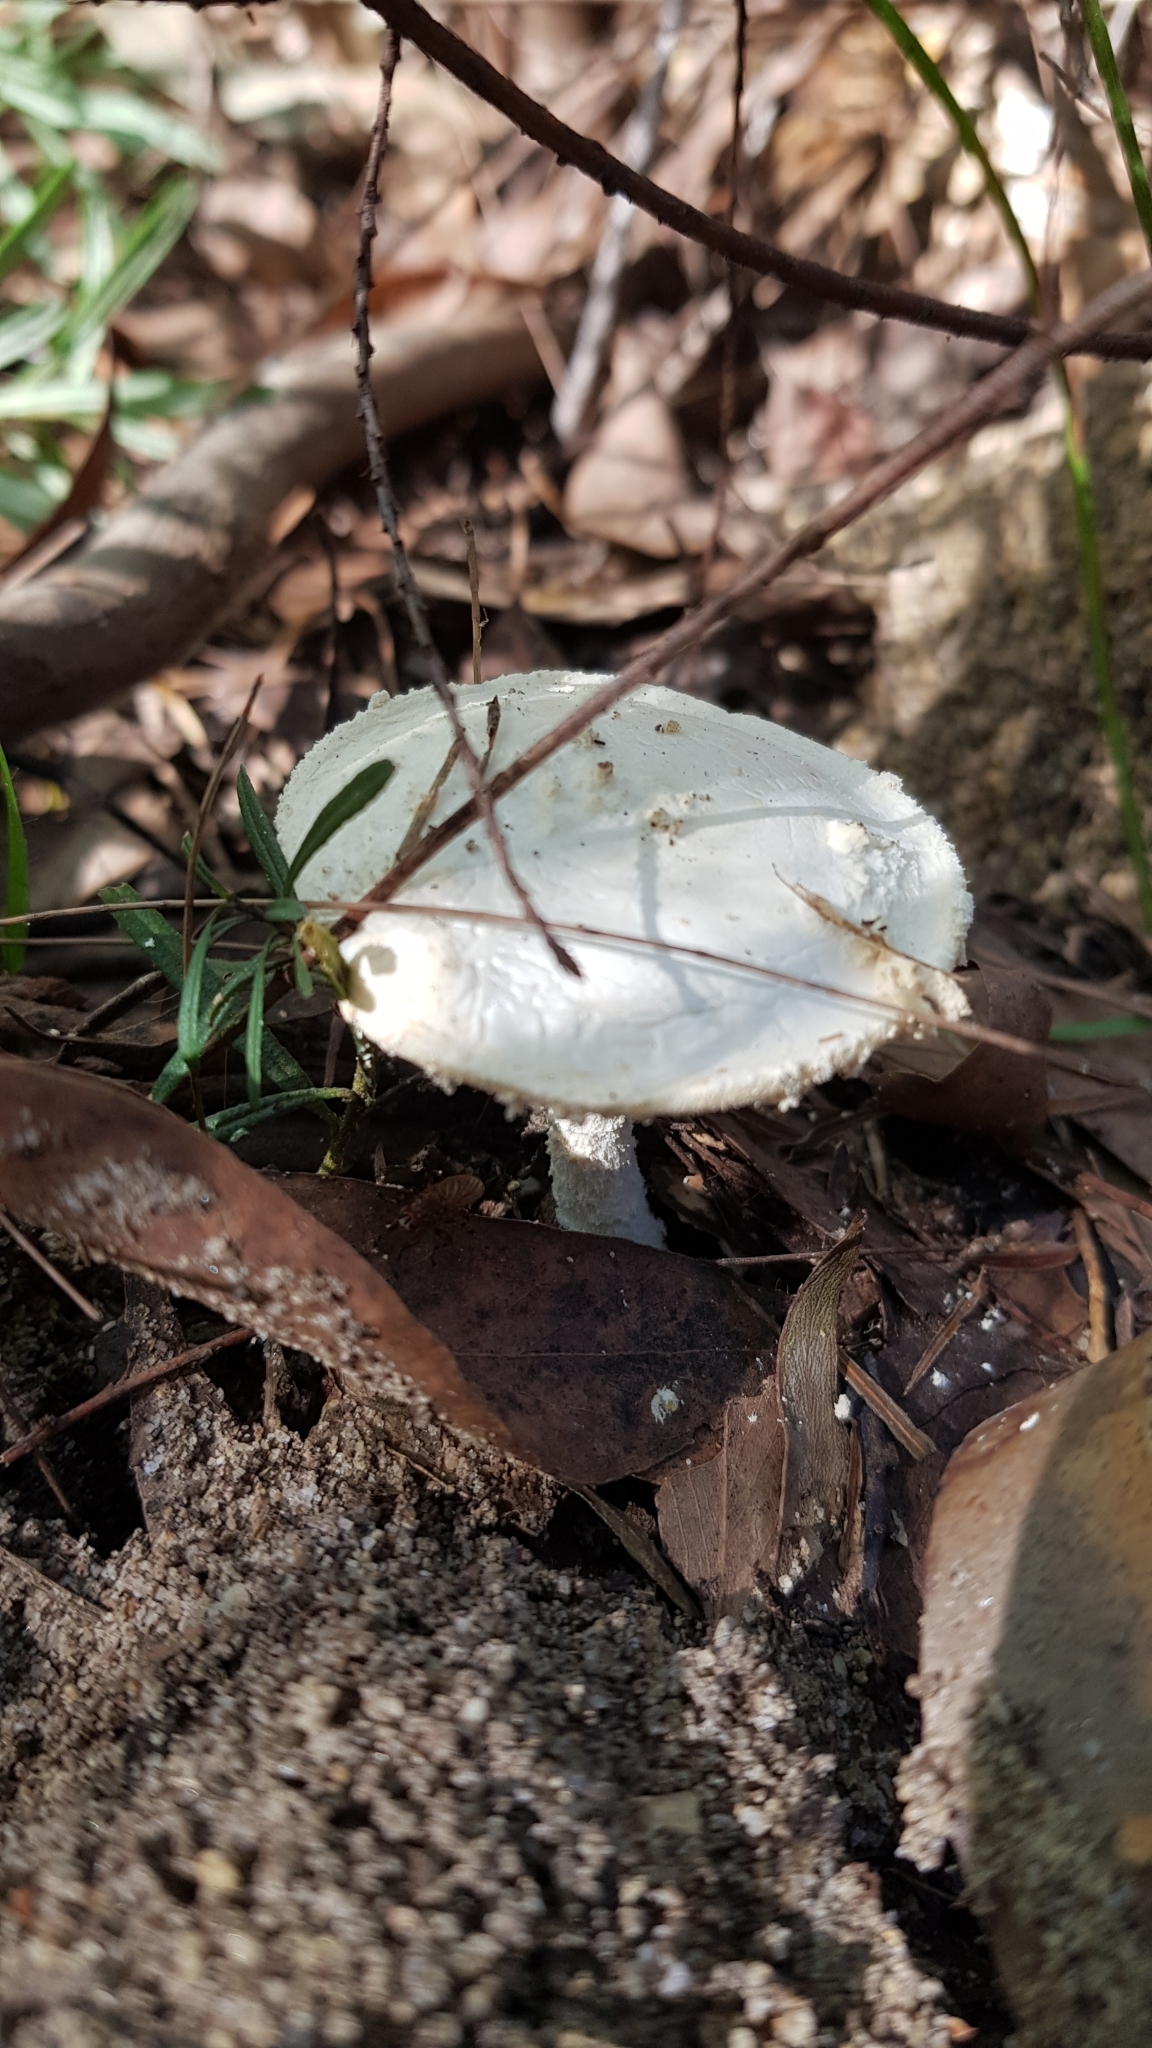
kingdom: Fungi
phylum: Basidiomycota
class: Agaricomycetes
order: Agaricales
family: Amanitaceae
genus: Amanita
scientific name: Amanita farinacea
